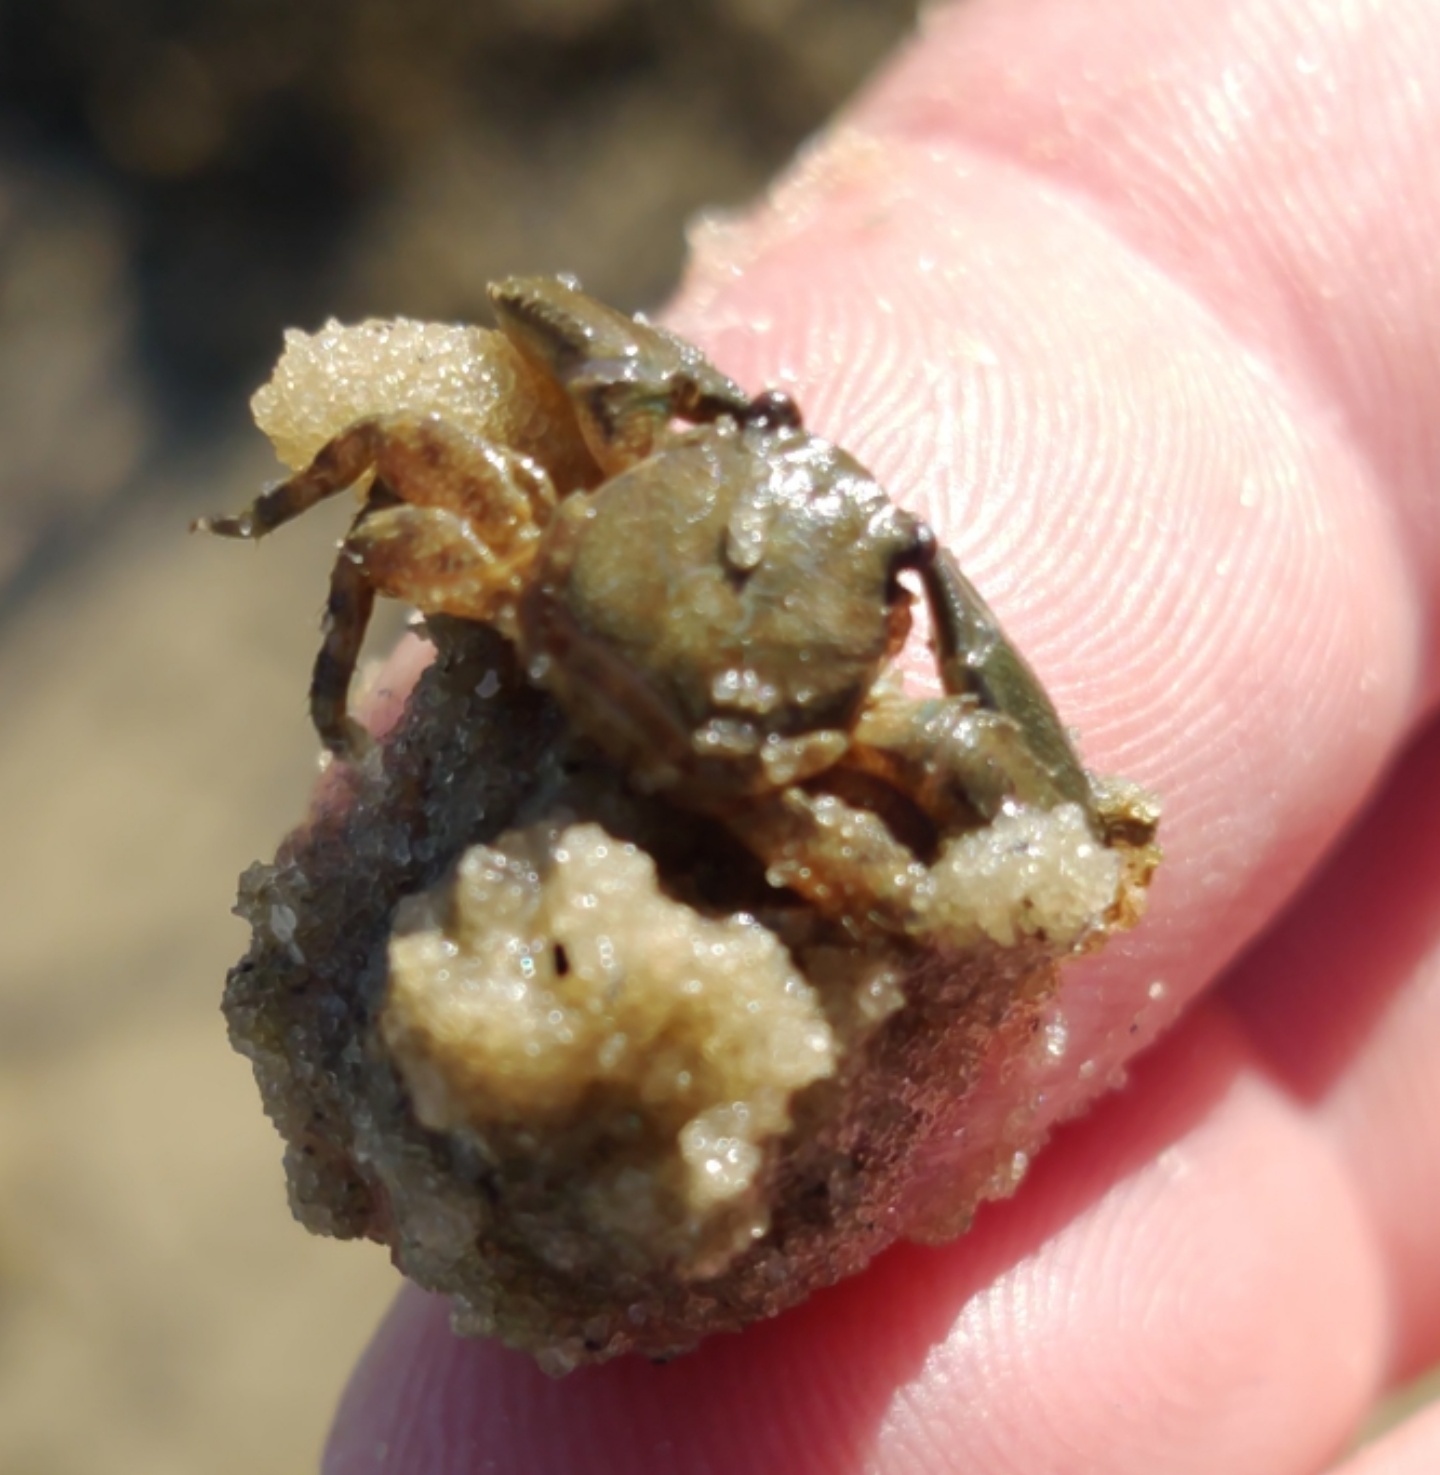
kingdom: Animalia
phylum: Arthropoda
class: Malacostraca
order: Decapoda
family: Porcellanidae
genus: Petrolisthes
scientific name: Petrolisthes armatus
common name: Green porcelain crab
